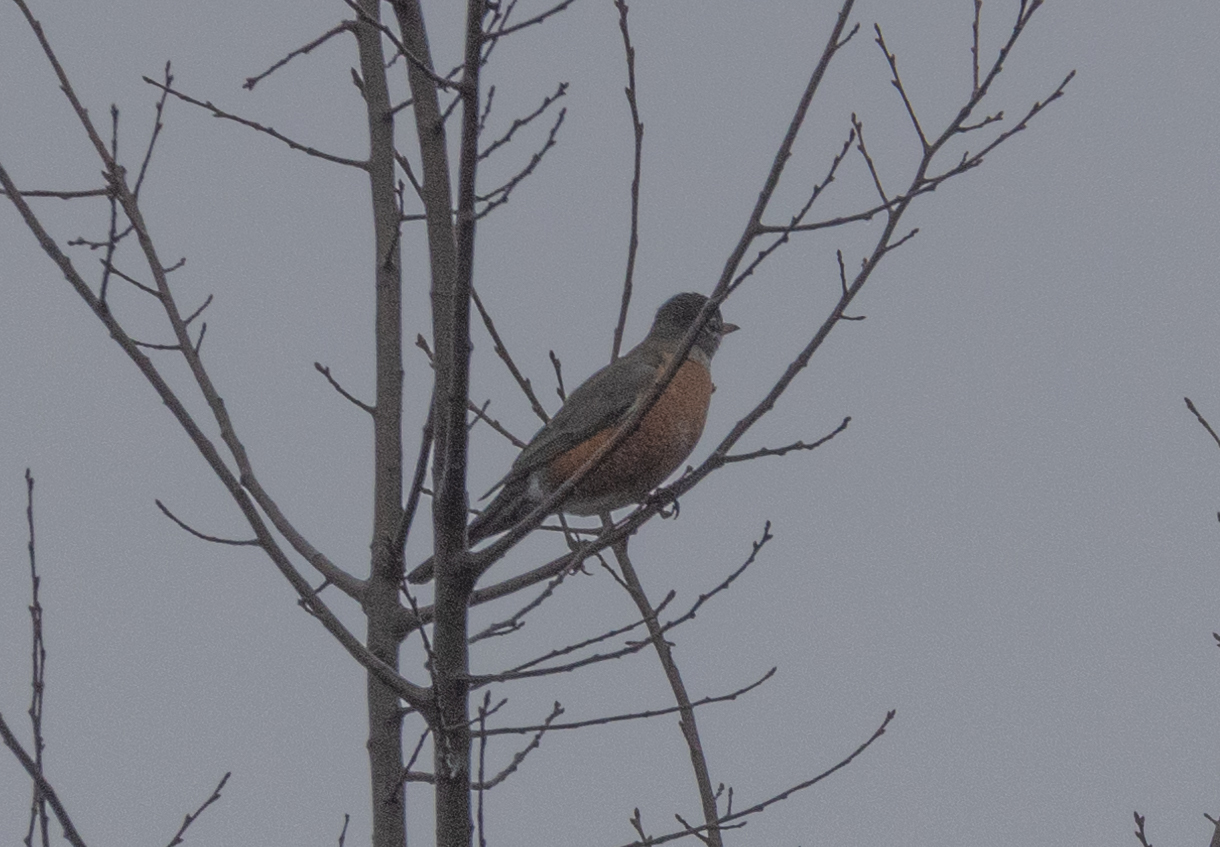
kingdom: Animalia
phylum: Chordata
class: Aves
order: Passeriformes
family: Turdidae
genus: Turdus
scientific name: Turdus migratorius
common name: American robin
